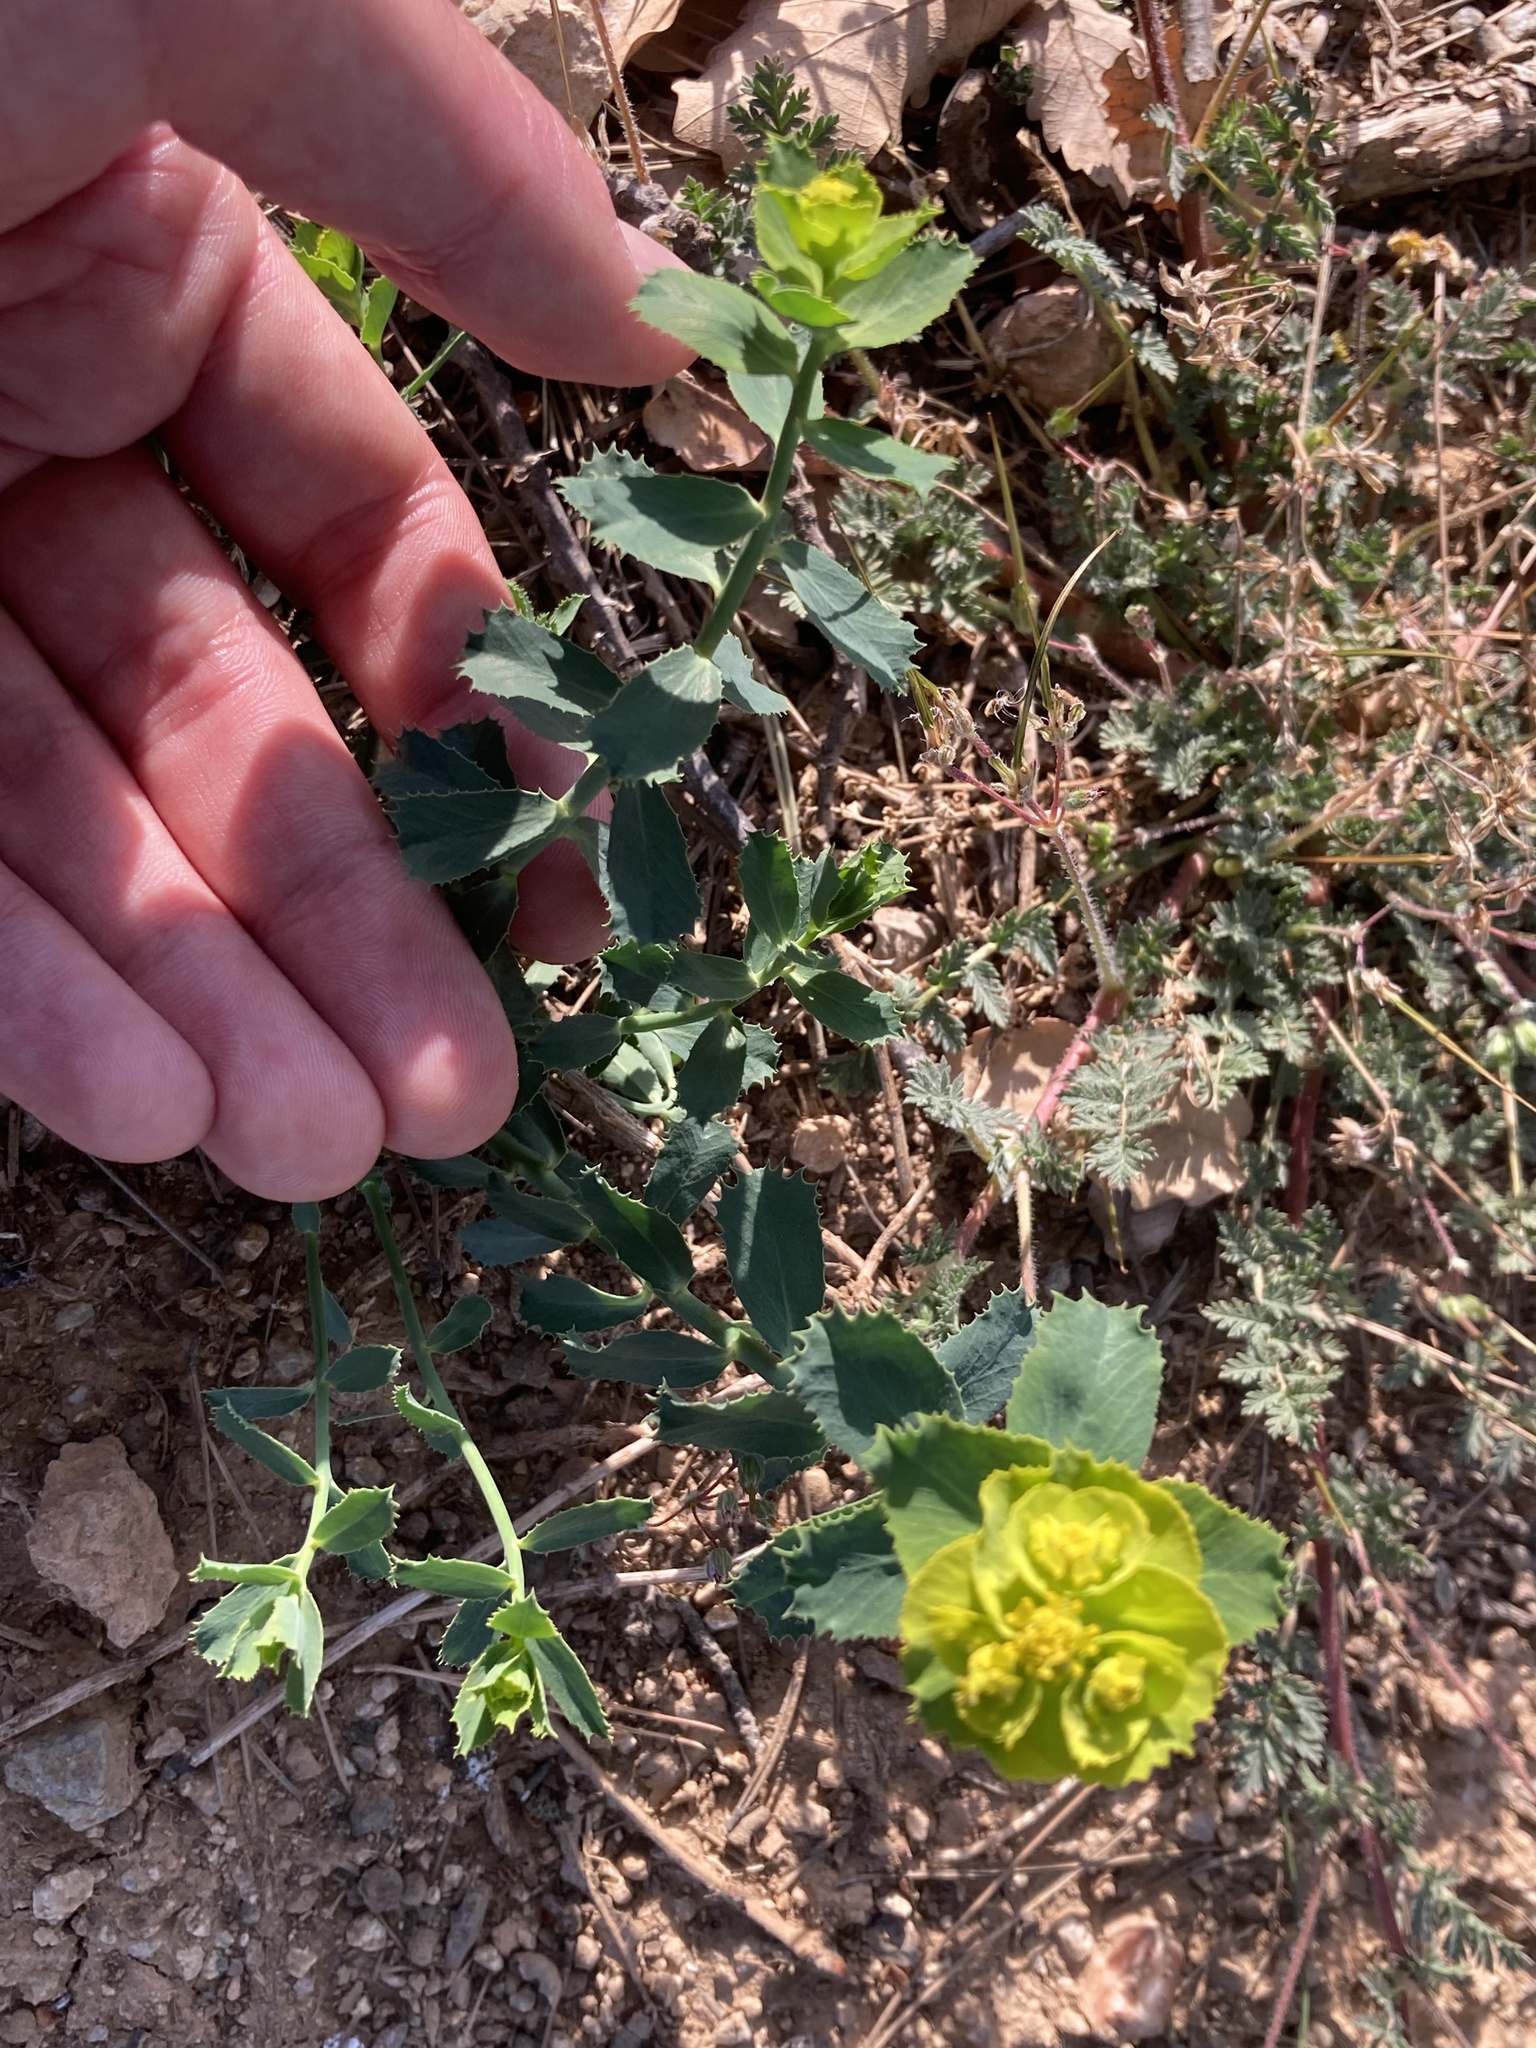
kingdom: Plantae
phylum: Tracheophyta
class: Magnoliopsida
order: Malpighiales
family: Euphorbiaceae
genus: Euphorbia
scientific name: Euphorbia serrata
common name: Serrate spurge
